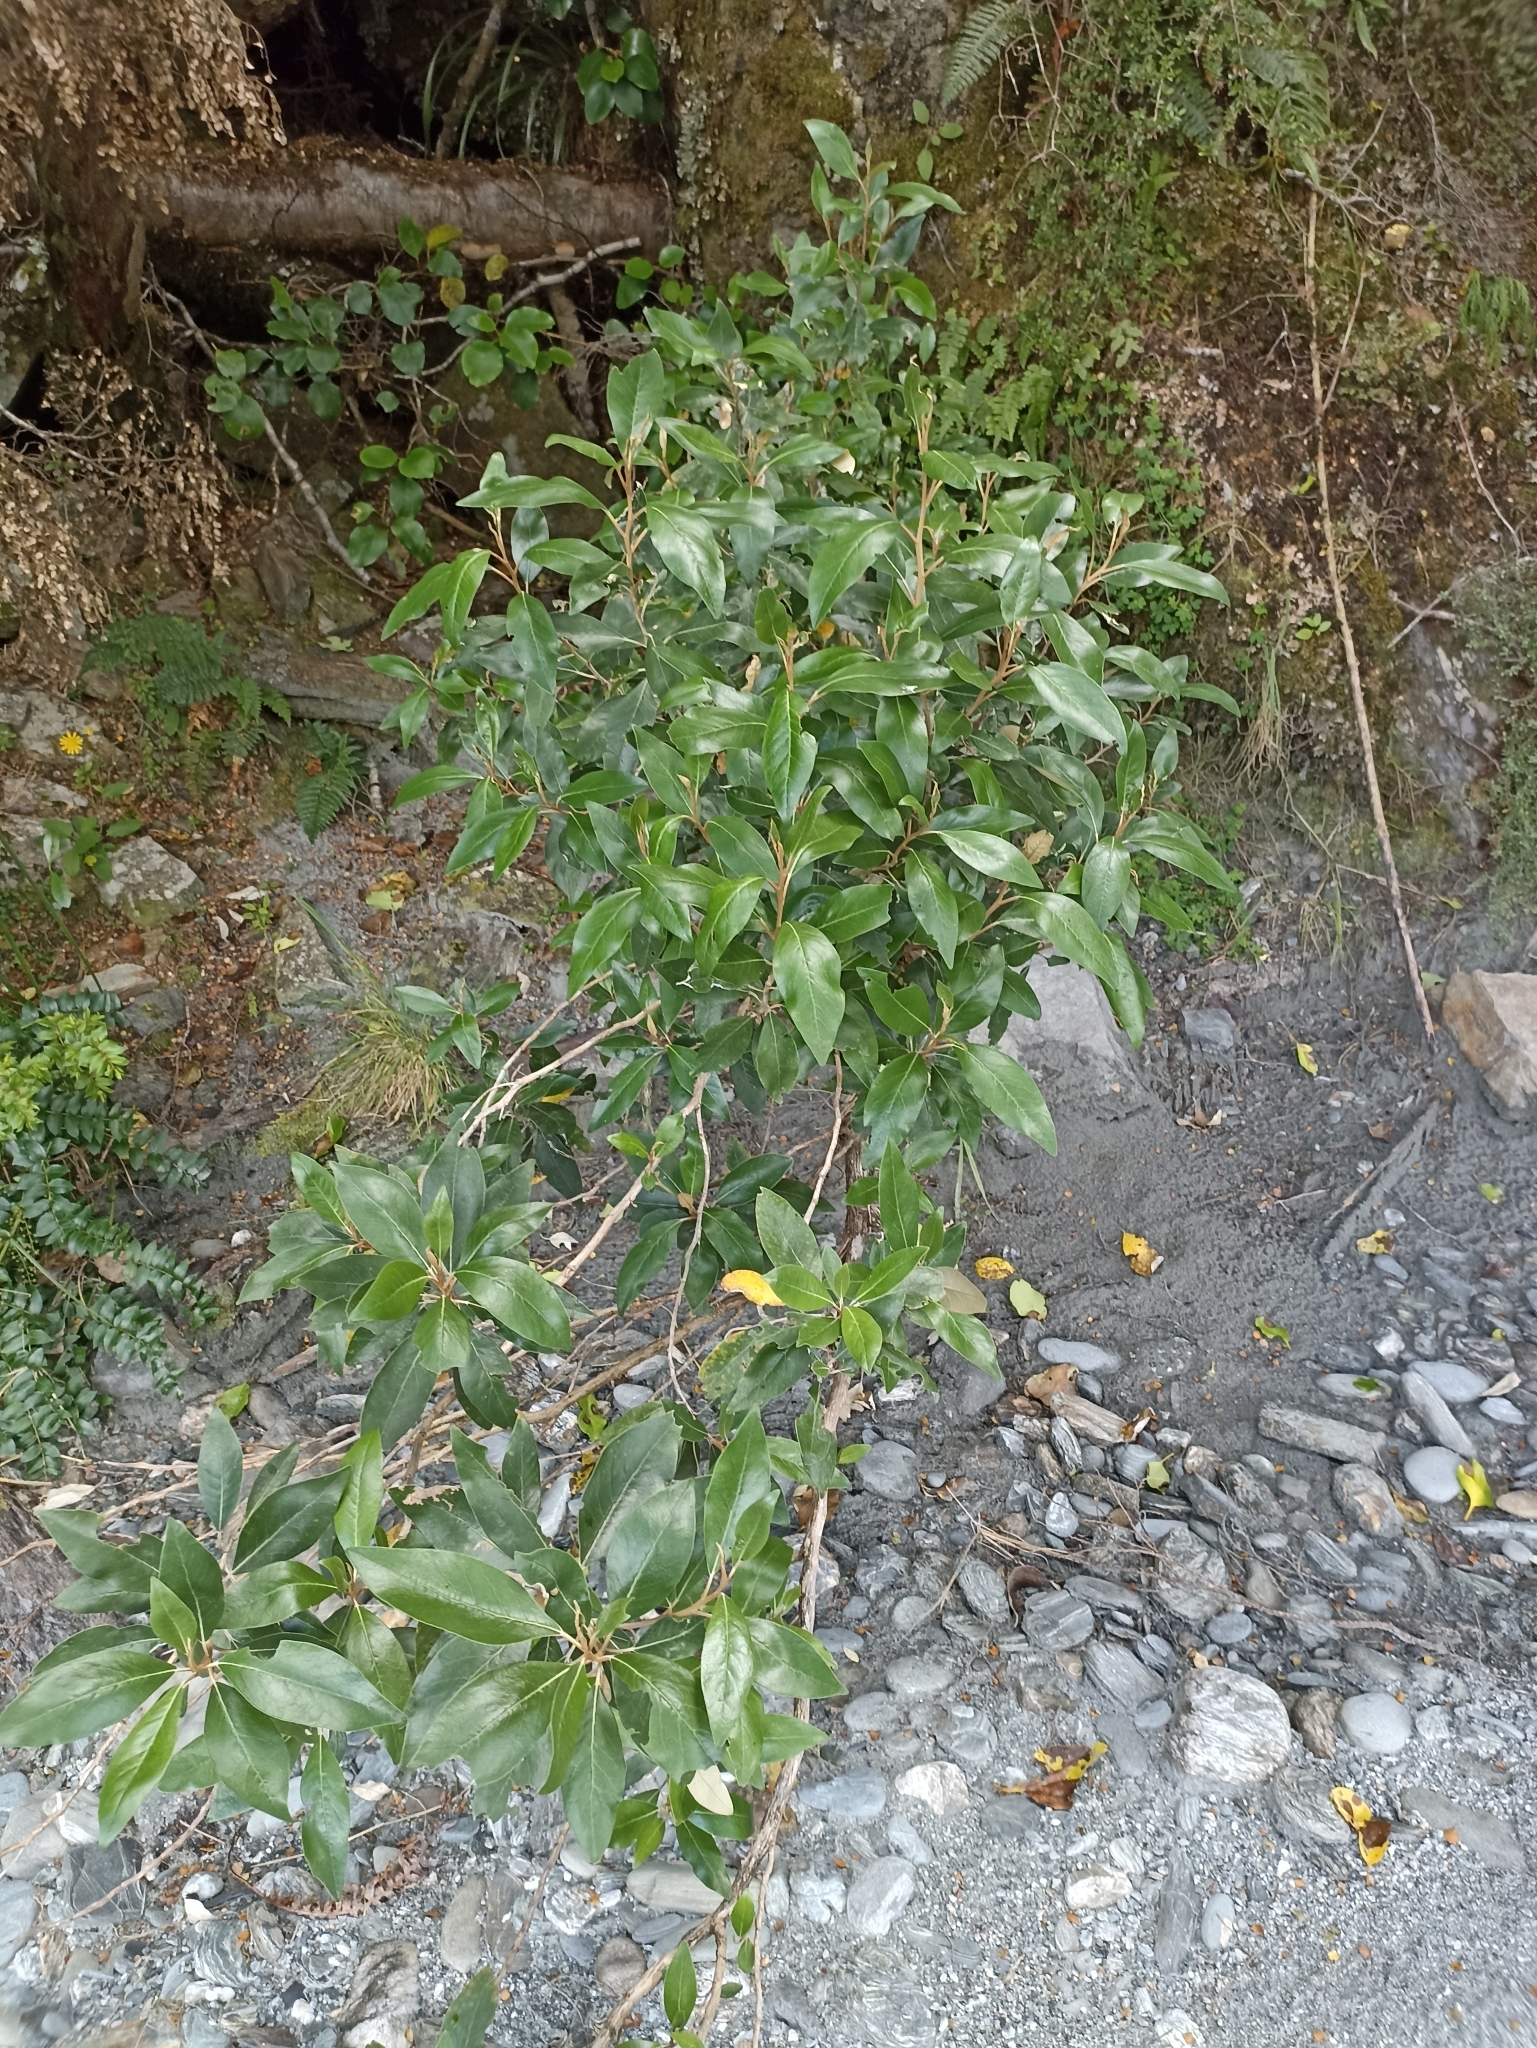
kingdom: Plantae
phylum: Tracheophyta
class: Magnoliopsida
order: Asterales
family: Asteraceae
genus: Olearia
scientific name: Olearia avicenniifolia
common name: Mangrove-leaf daisybush
